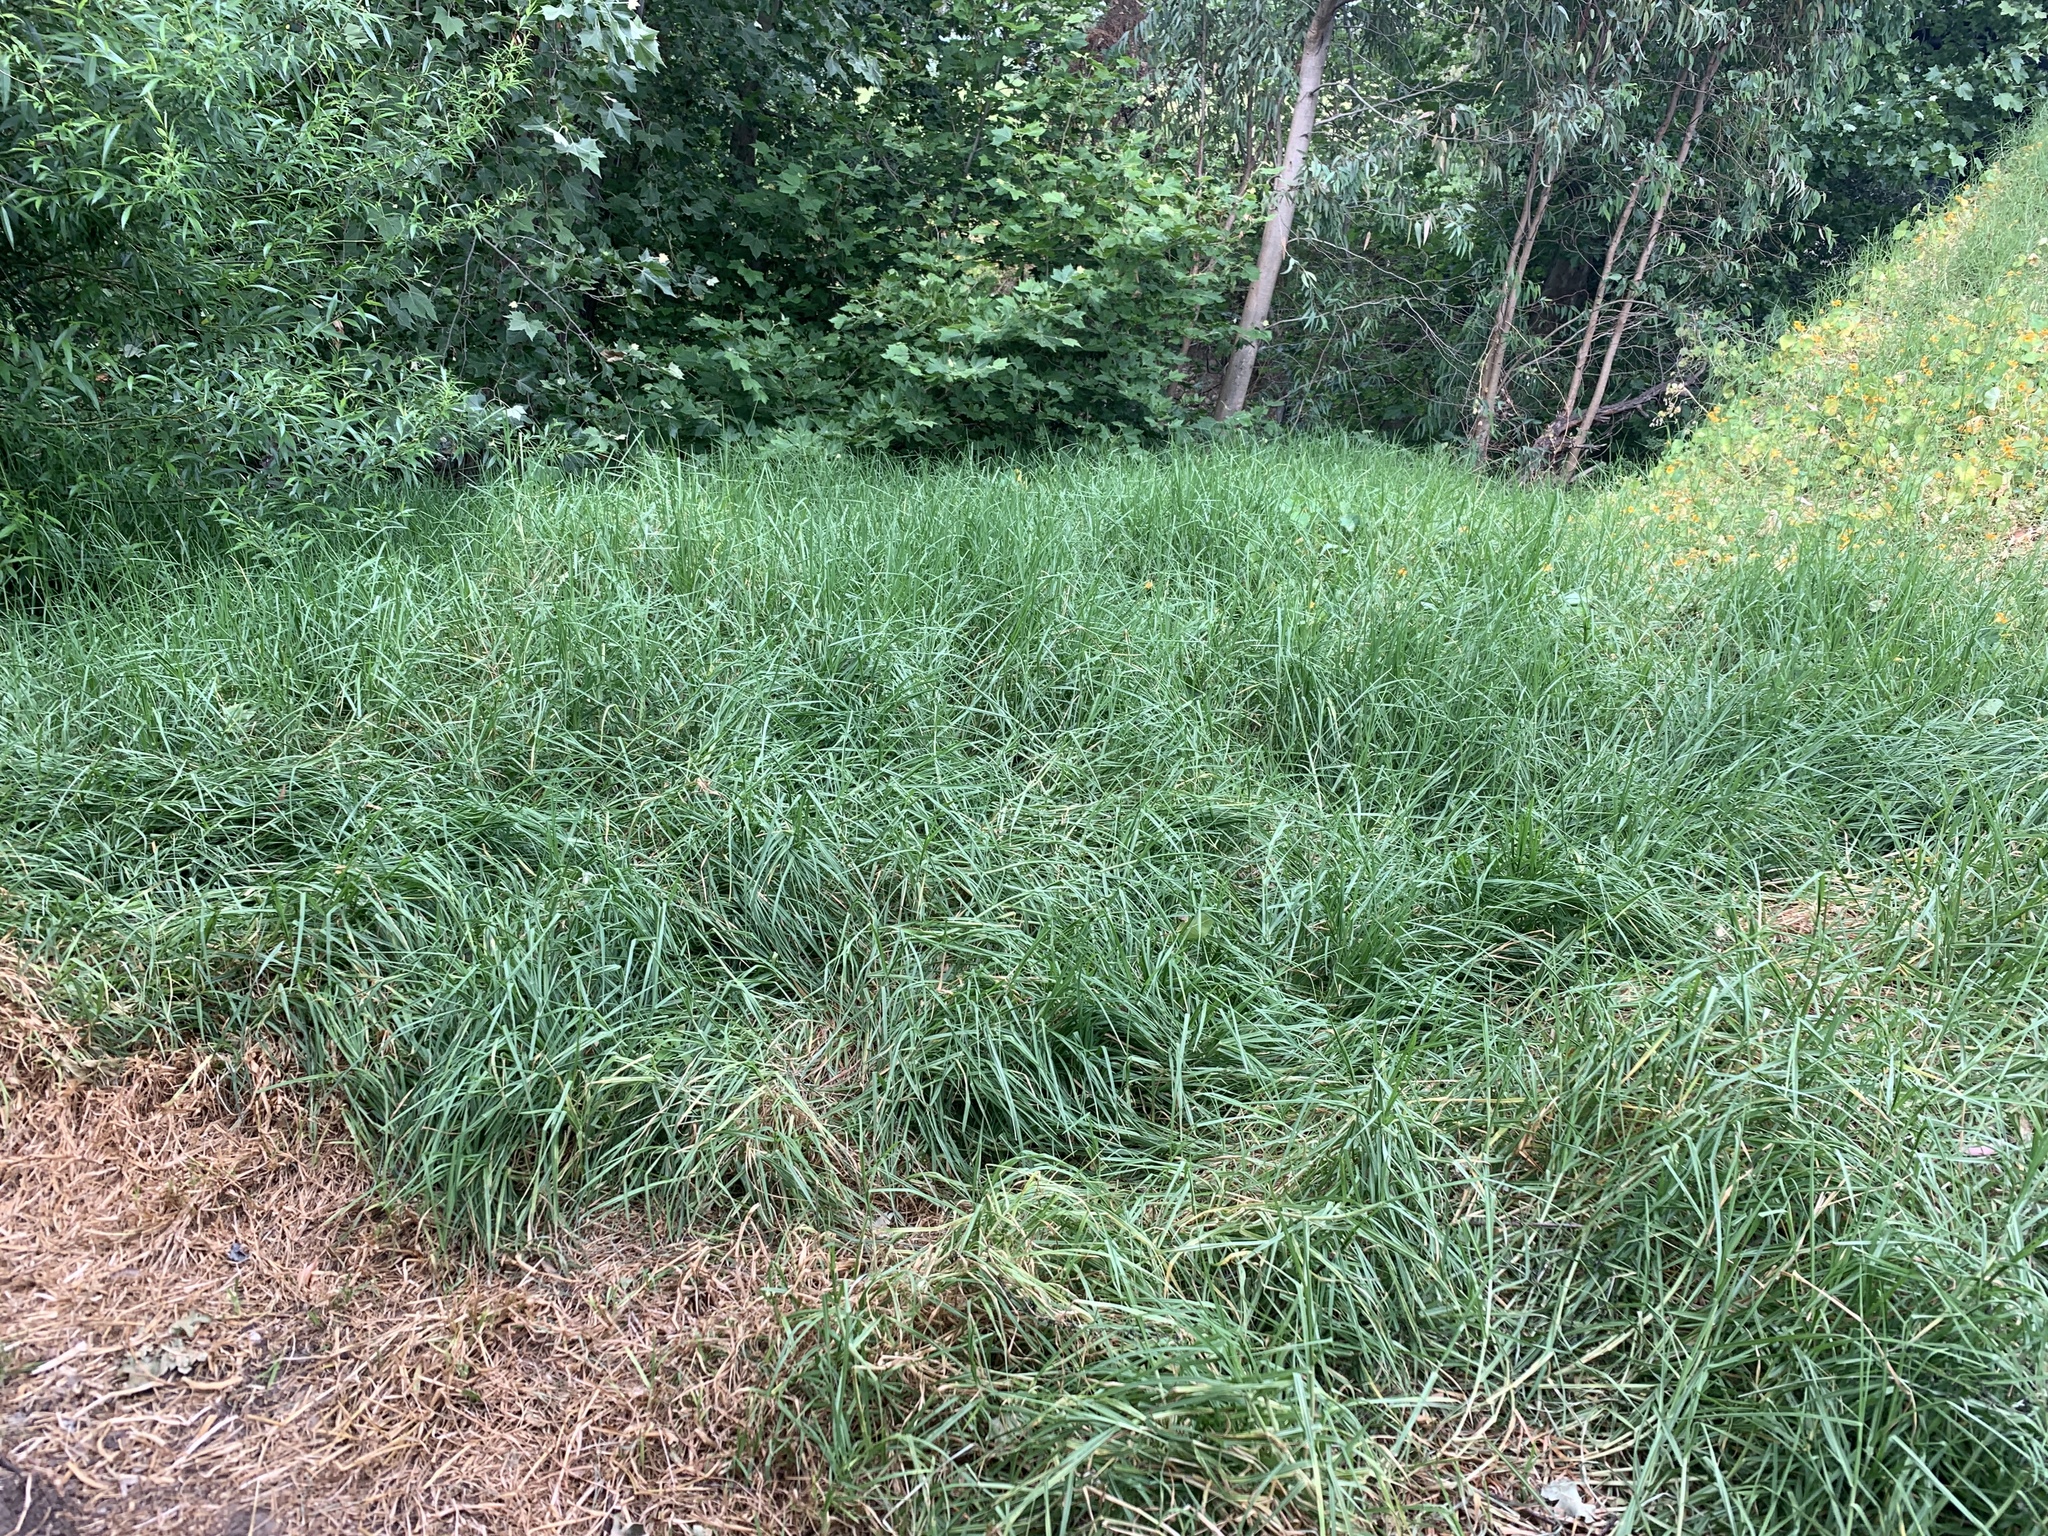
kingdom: Plantae
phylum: Tracheophyta
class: Liliopsida
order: Poales
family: Poaceae
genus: Cenchrus
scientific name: Cenchrus clandestinus
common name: Kikuyugrass
